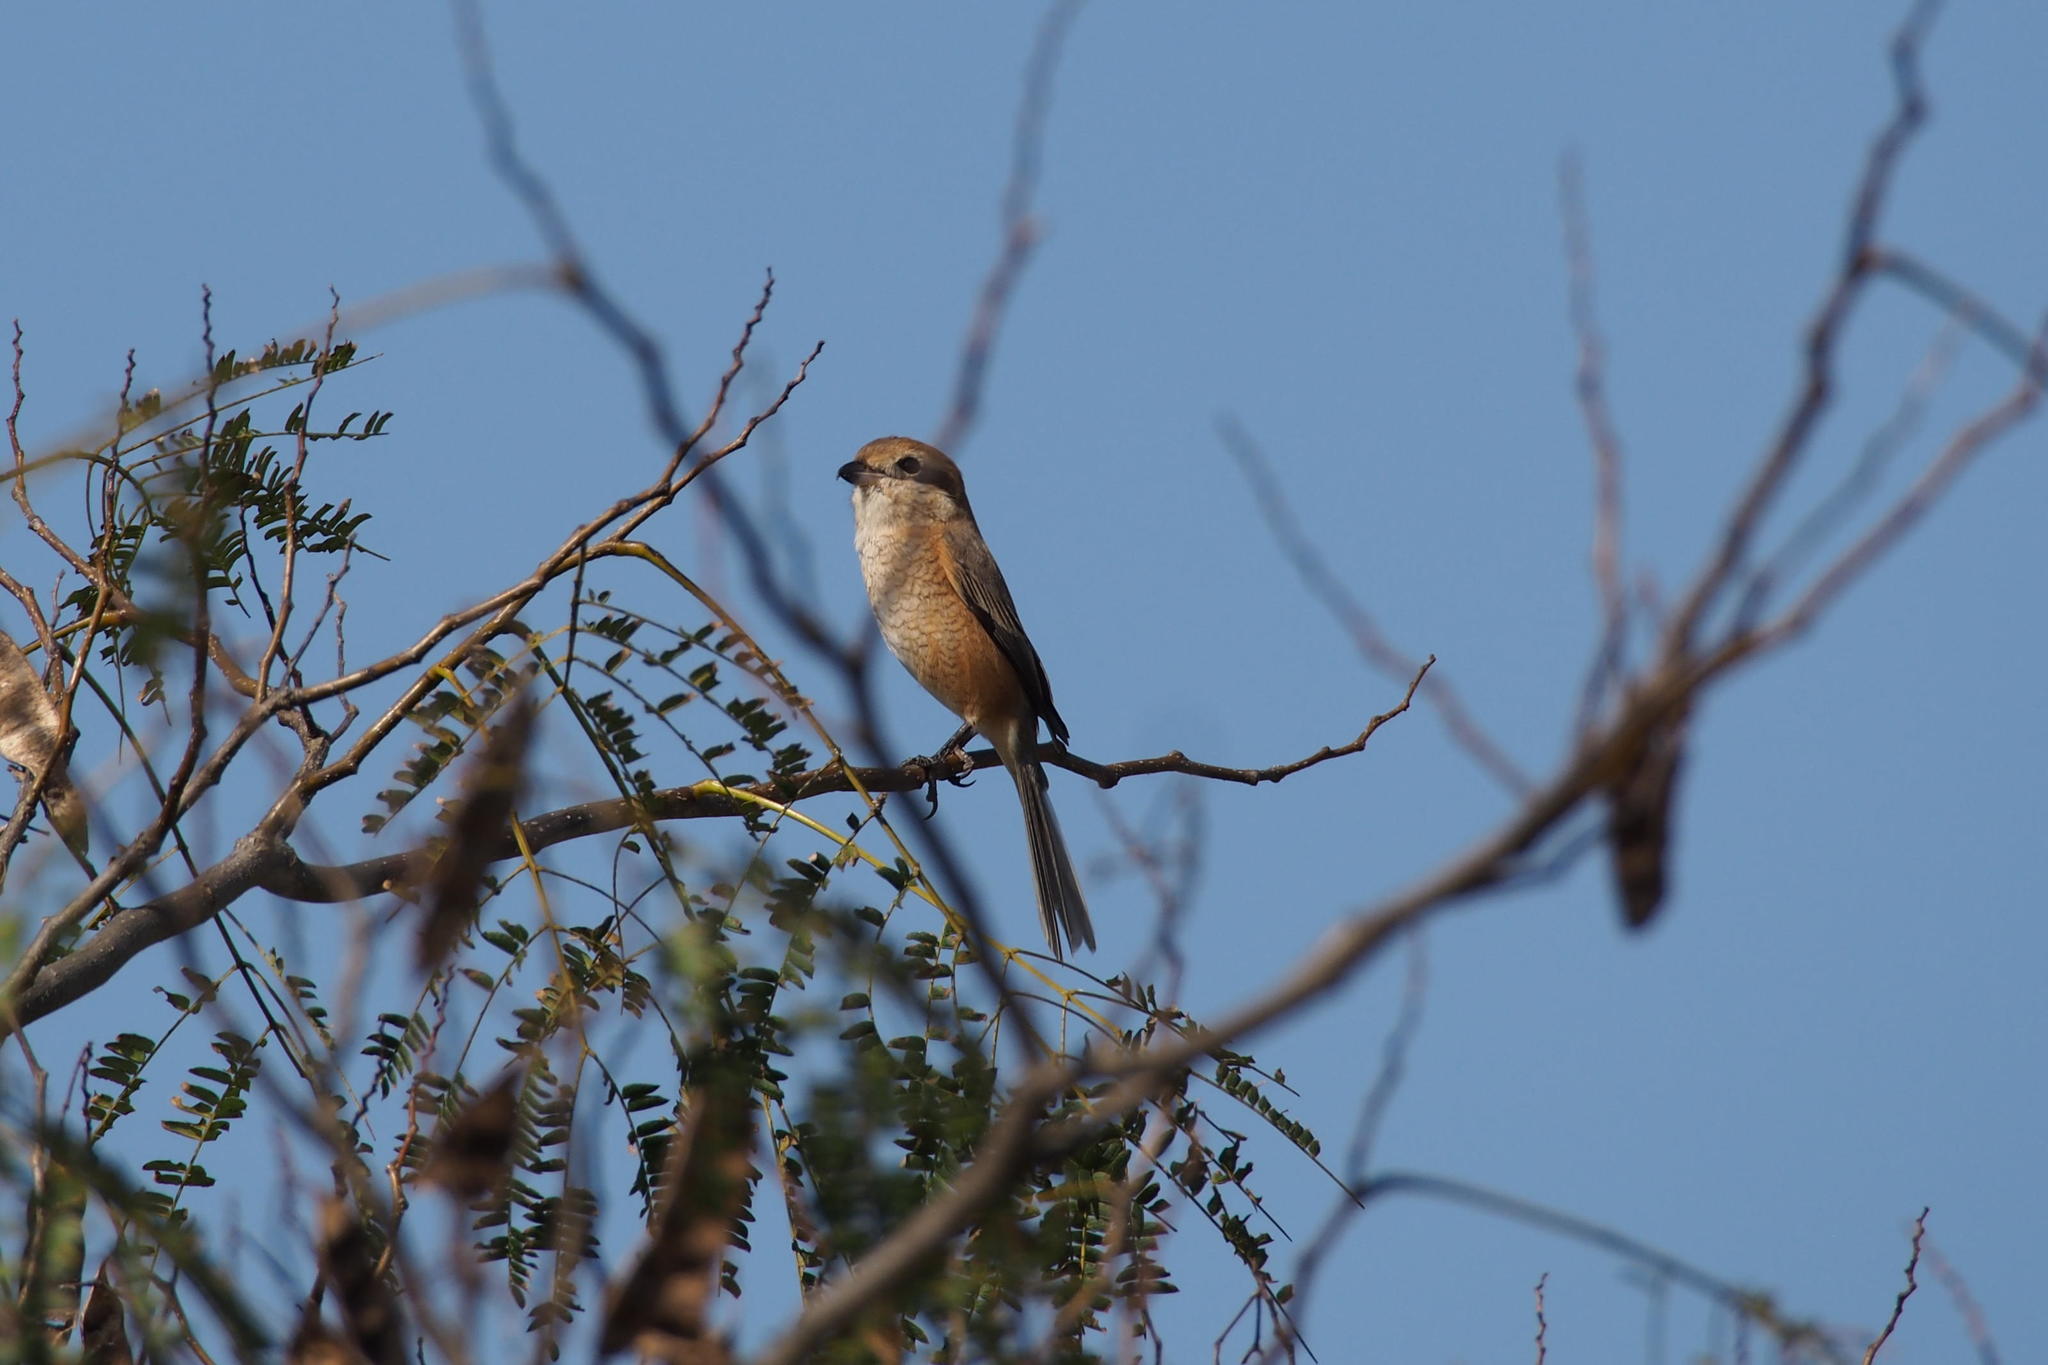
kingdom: Animalia
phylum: Chordata
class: Aves
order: Passeriformes
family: Laniidae
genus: Lanius
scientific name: Lanius bucephalus
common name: Bull-headed shrike
